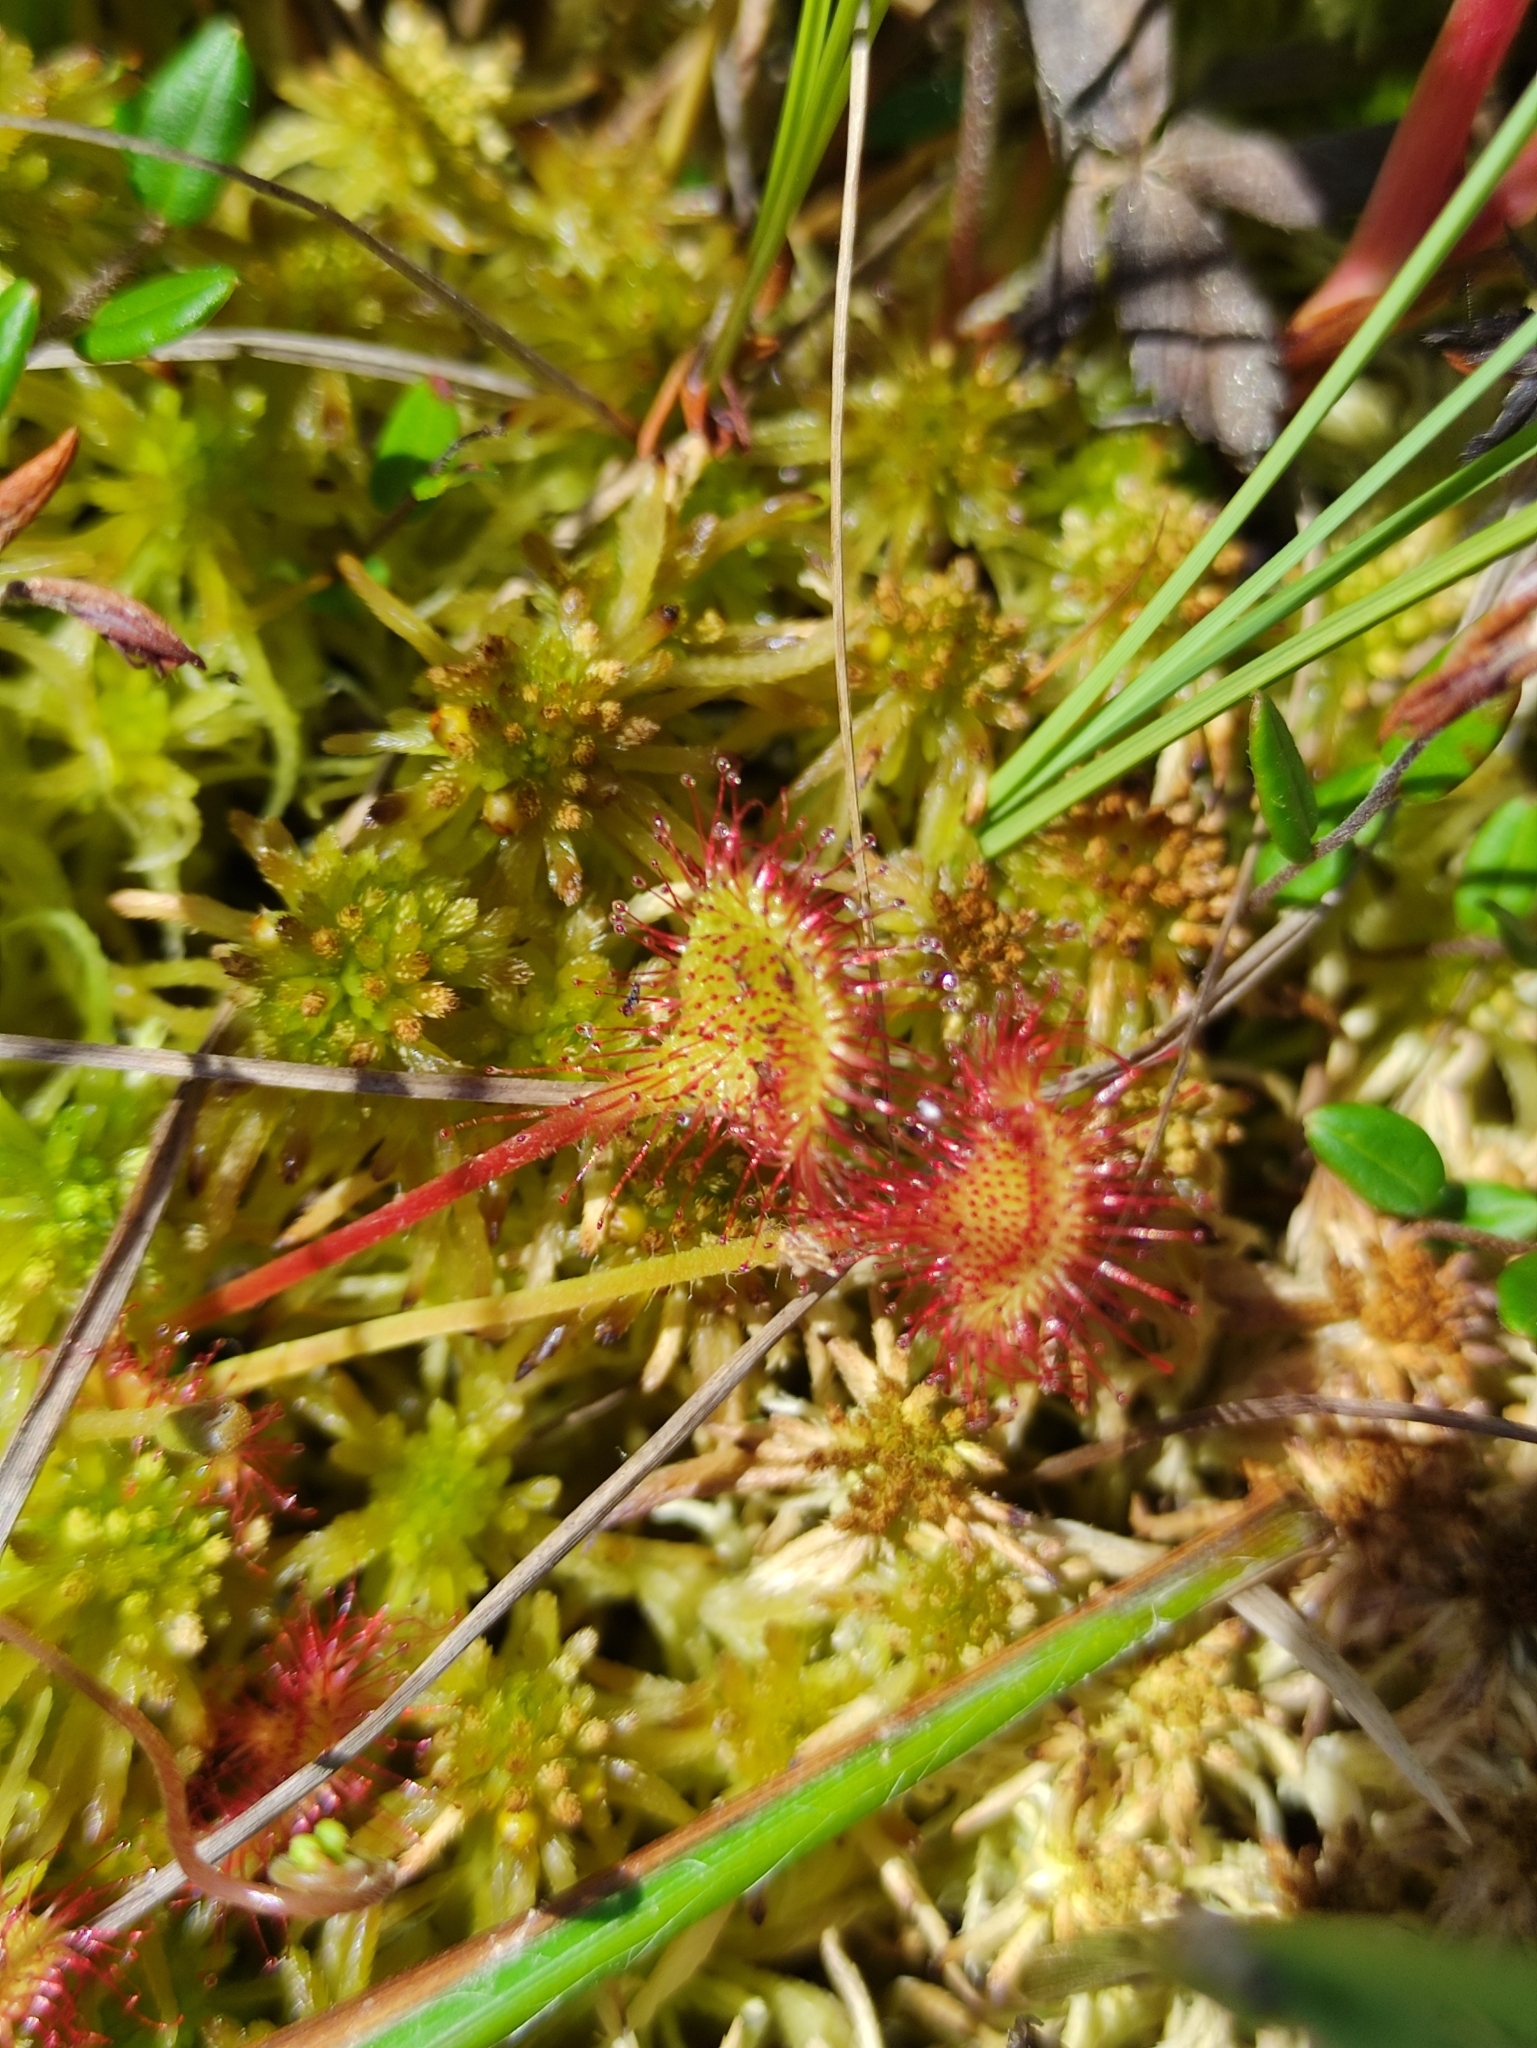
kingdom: Plantae
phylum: Tracheophyta
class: Magnoliopsida
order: Caryophyllales
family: Droseraceae
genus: Drosera
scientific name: Drosera rotundifolia
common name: Round-leaved sundew
